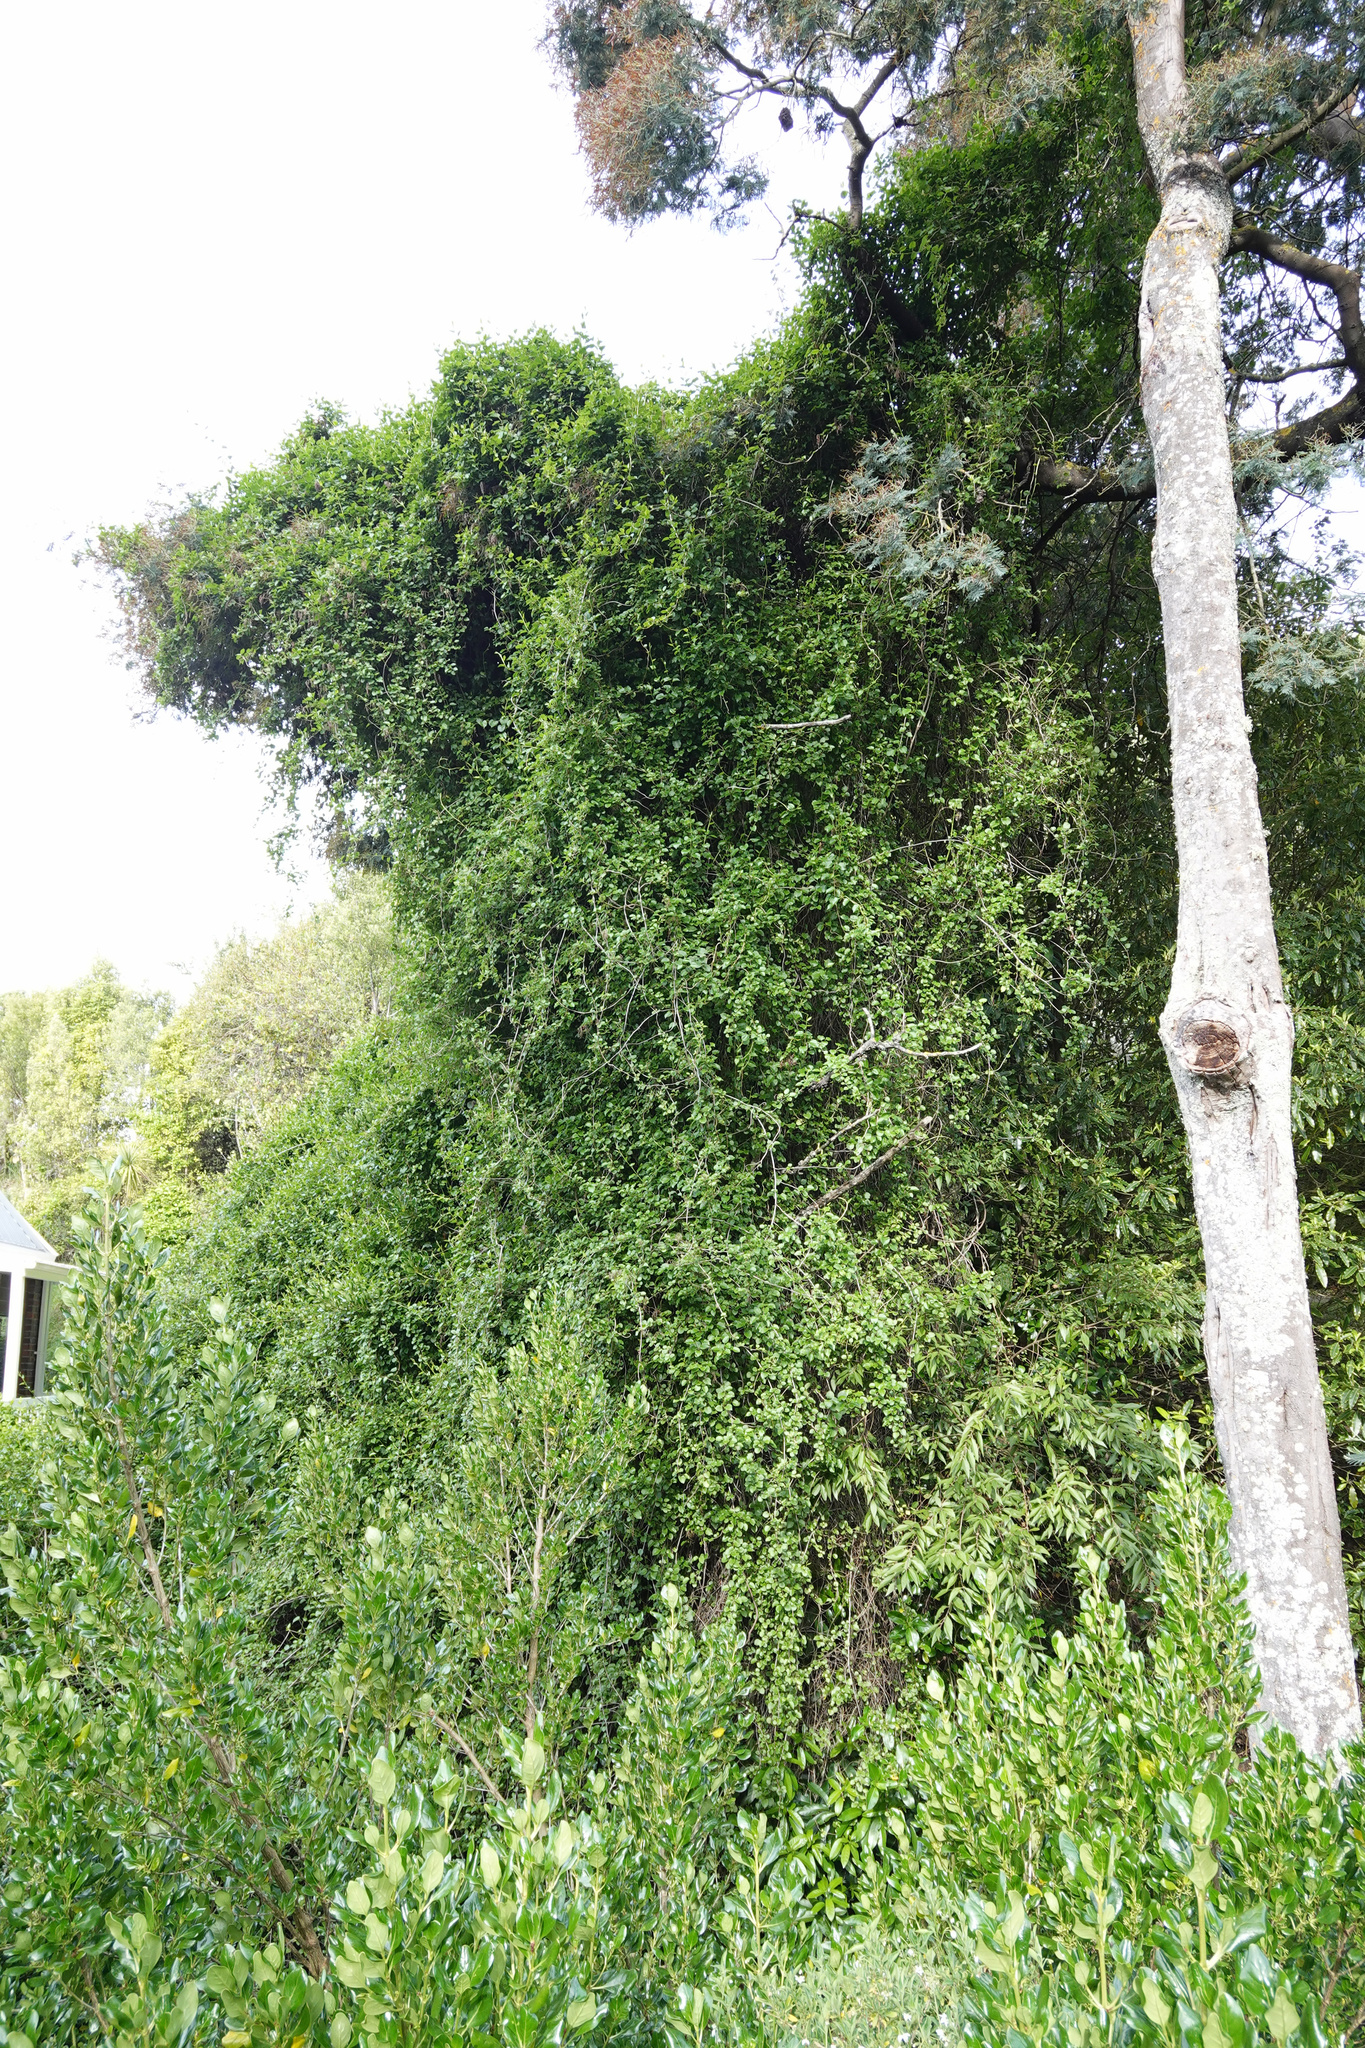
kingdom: Plantae
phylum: Tracheophyta
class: Magnoliopsida
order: Caryophyllales
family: Polygonaceae
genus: Muehlenbeckia
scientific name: Muehlenbeckia australis
